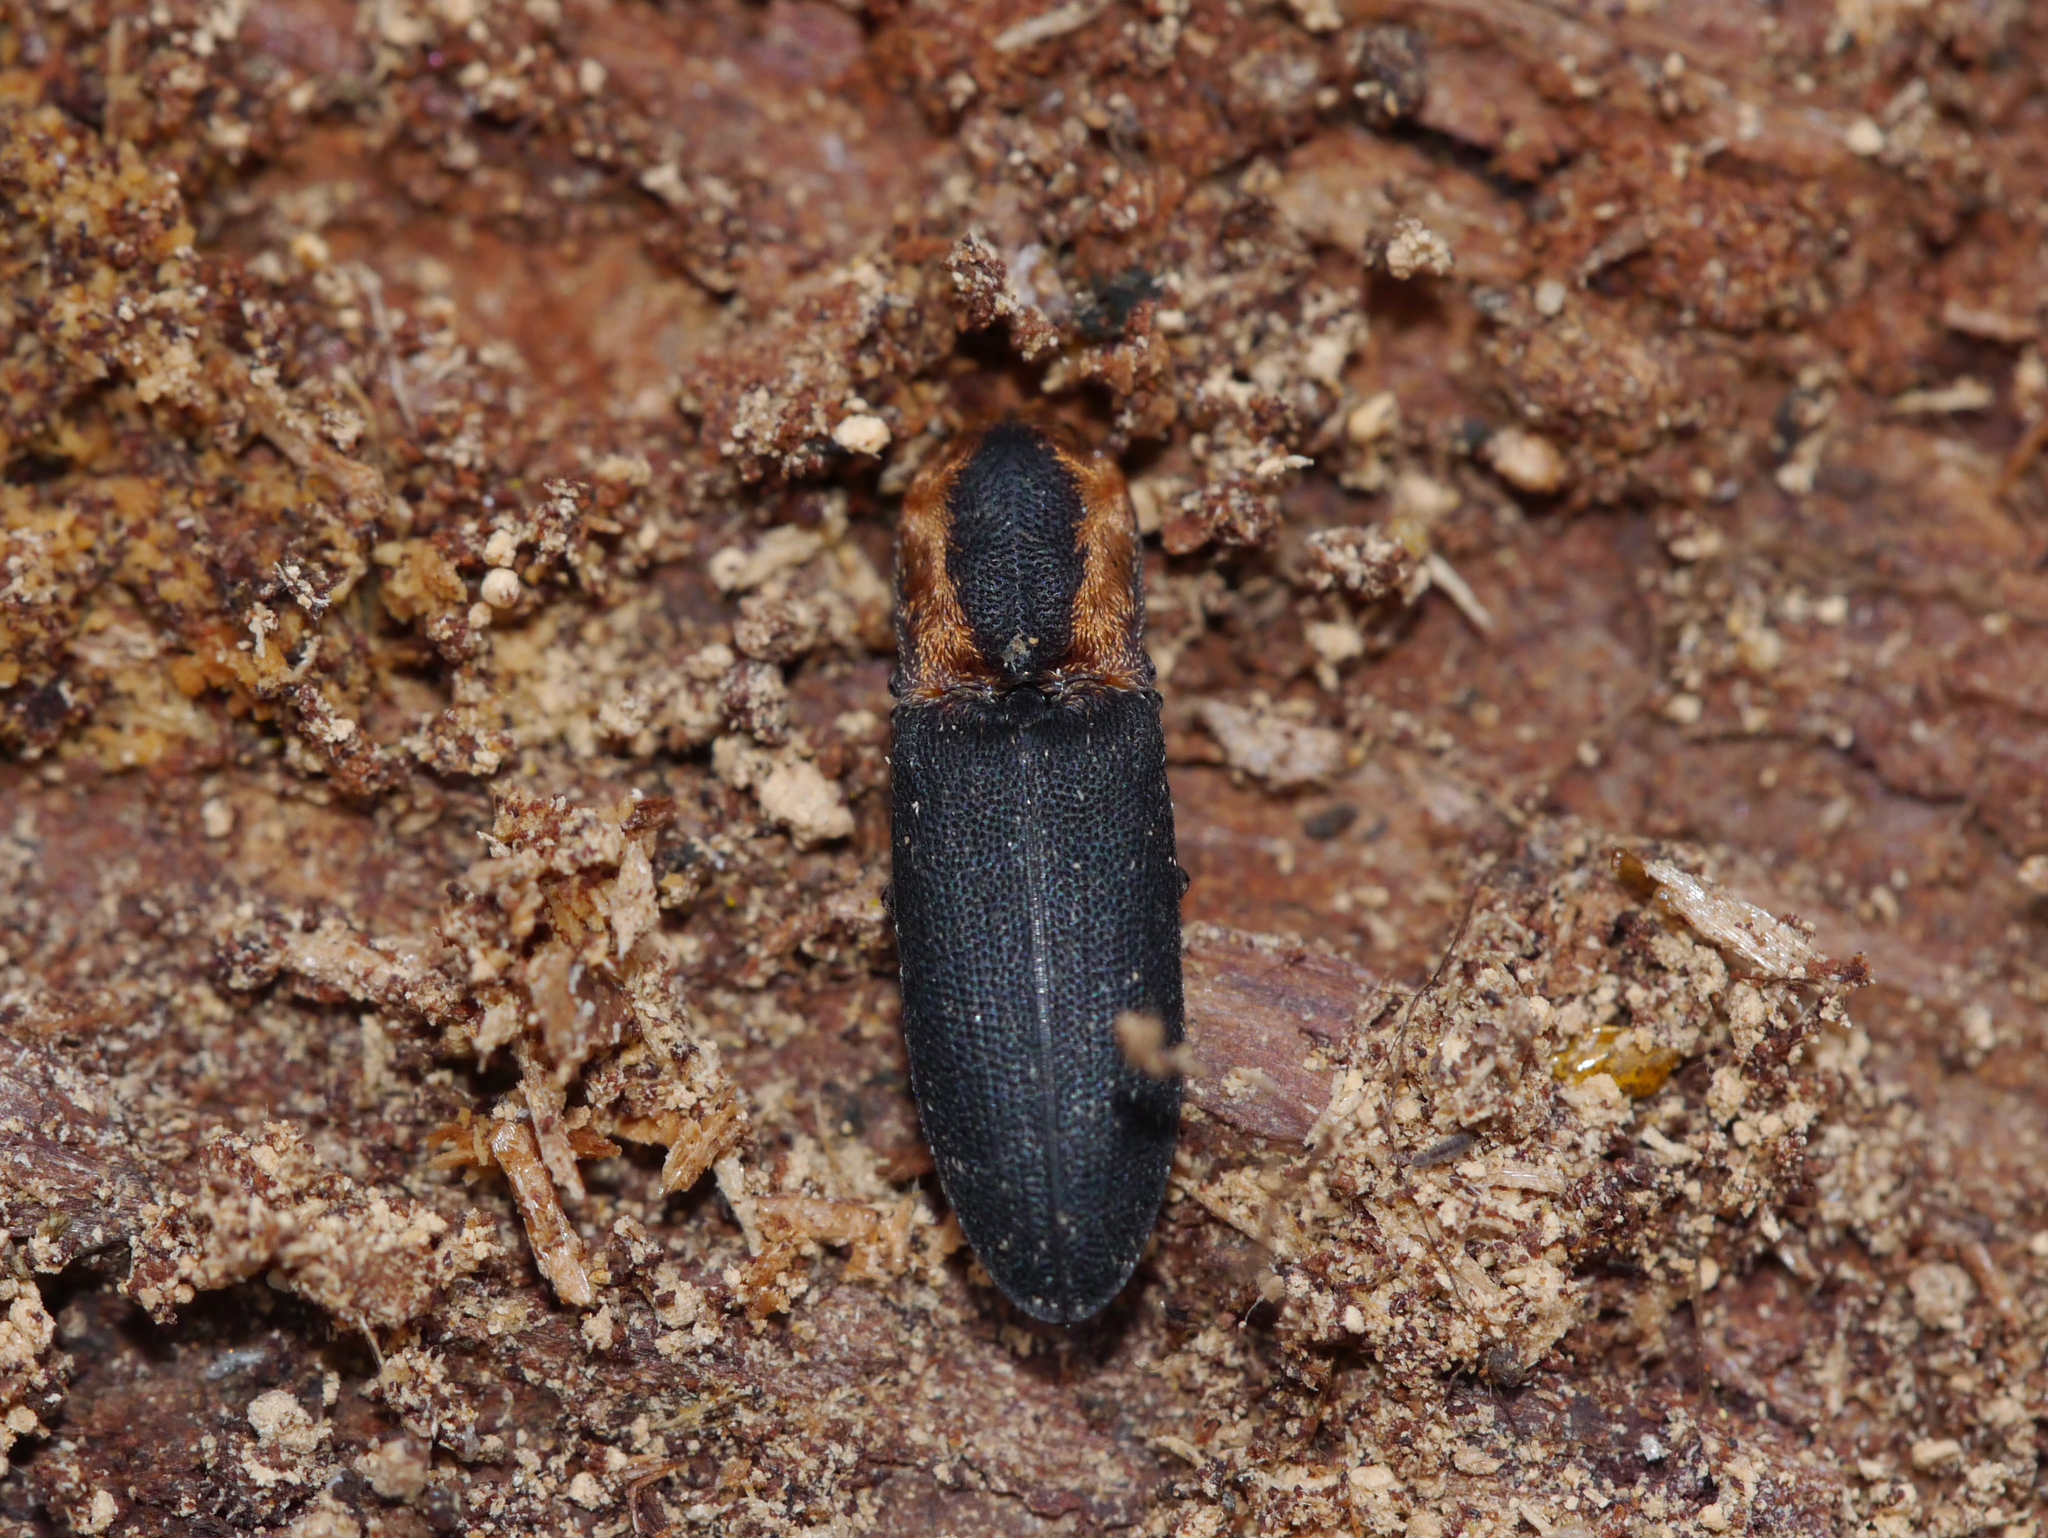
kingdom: Animalia
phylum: Arthropoda
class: Insecta
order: Coleoptera
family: Elateridae
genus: Lacon
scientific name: Lacon discoideus
